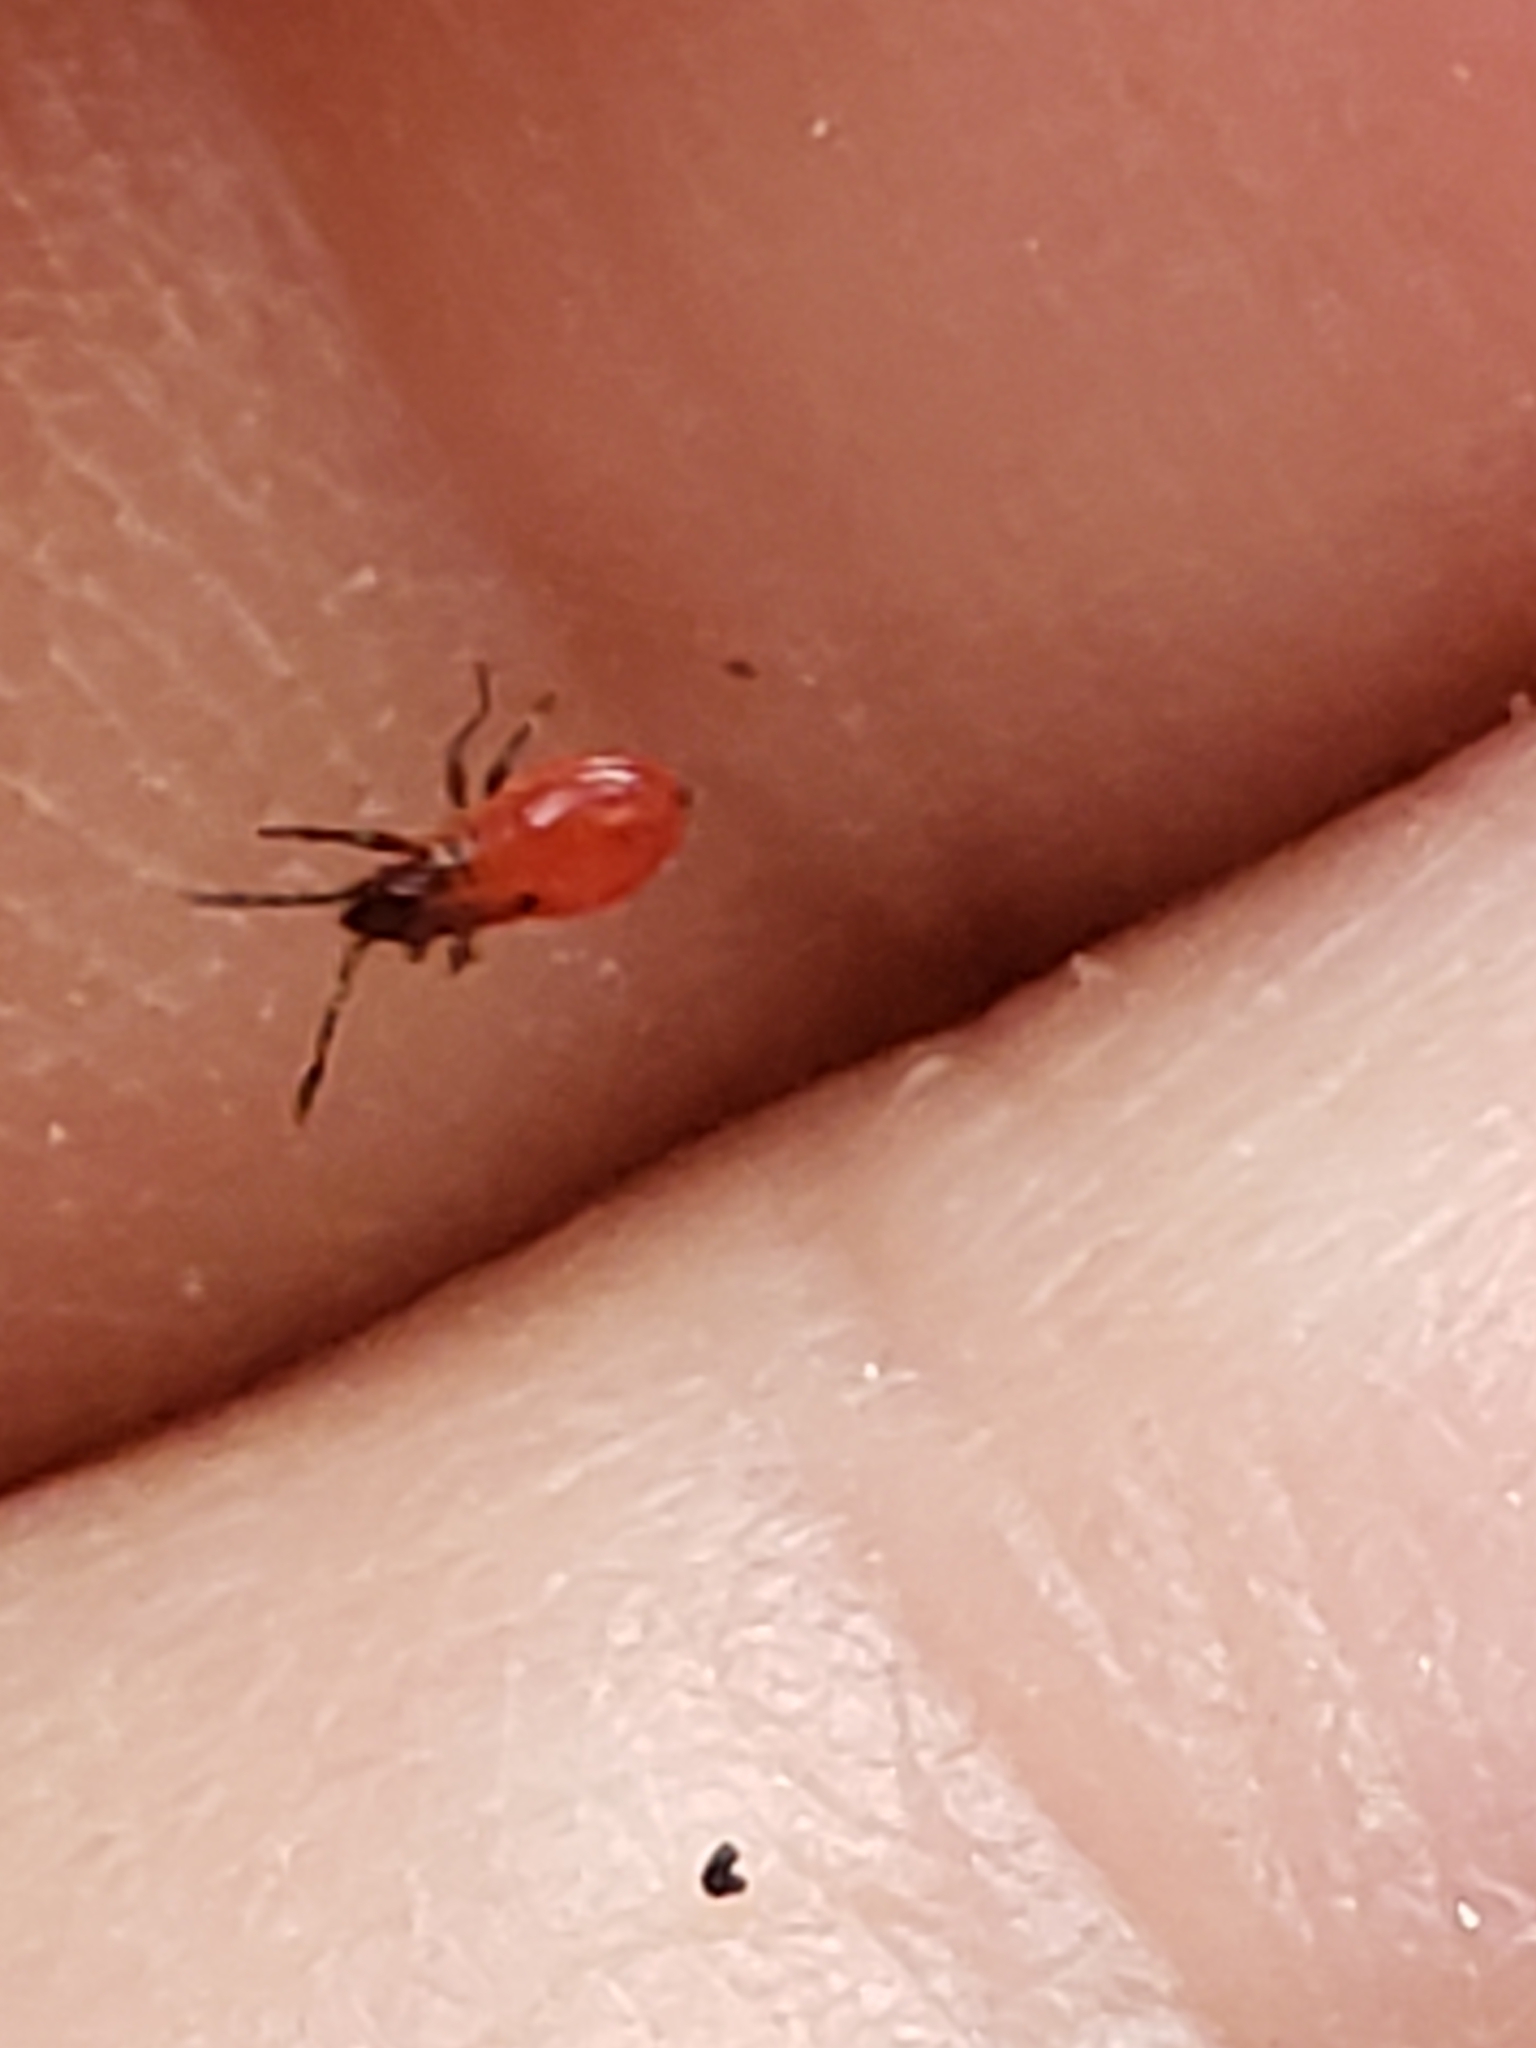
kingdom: Animalia
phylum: Arthropoda
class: Insecta
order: Hemiptera
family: Lygaeidae
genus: Oncopeltus
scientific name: Oncopeltus fasciatus
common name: Large milkweed bug
